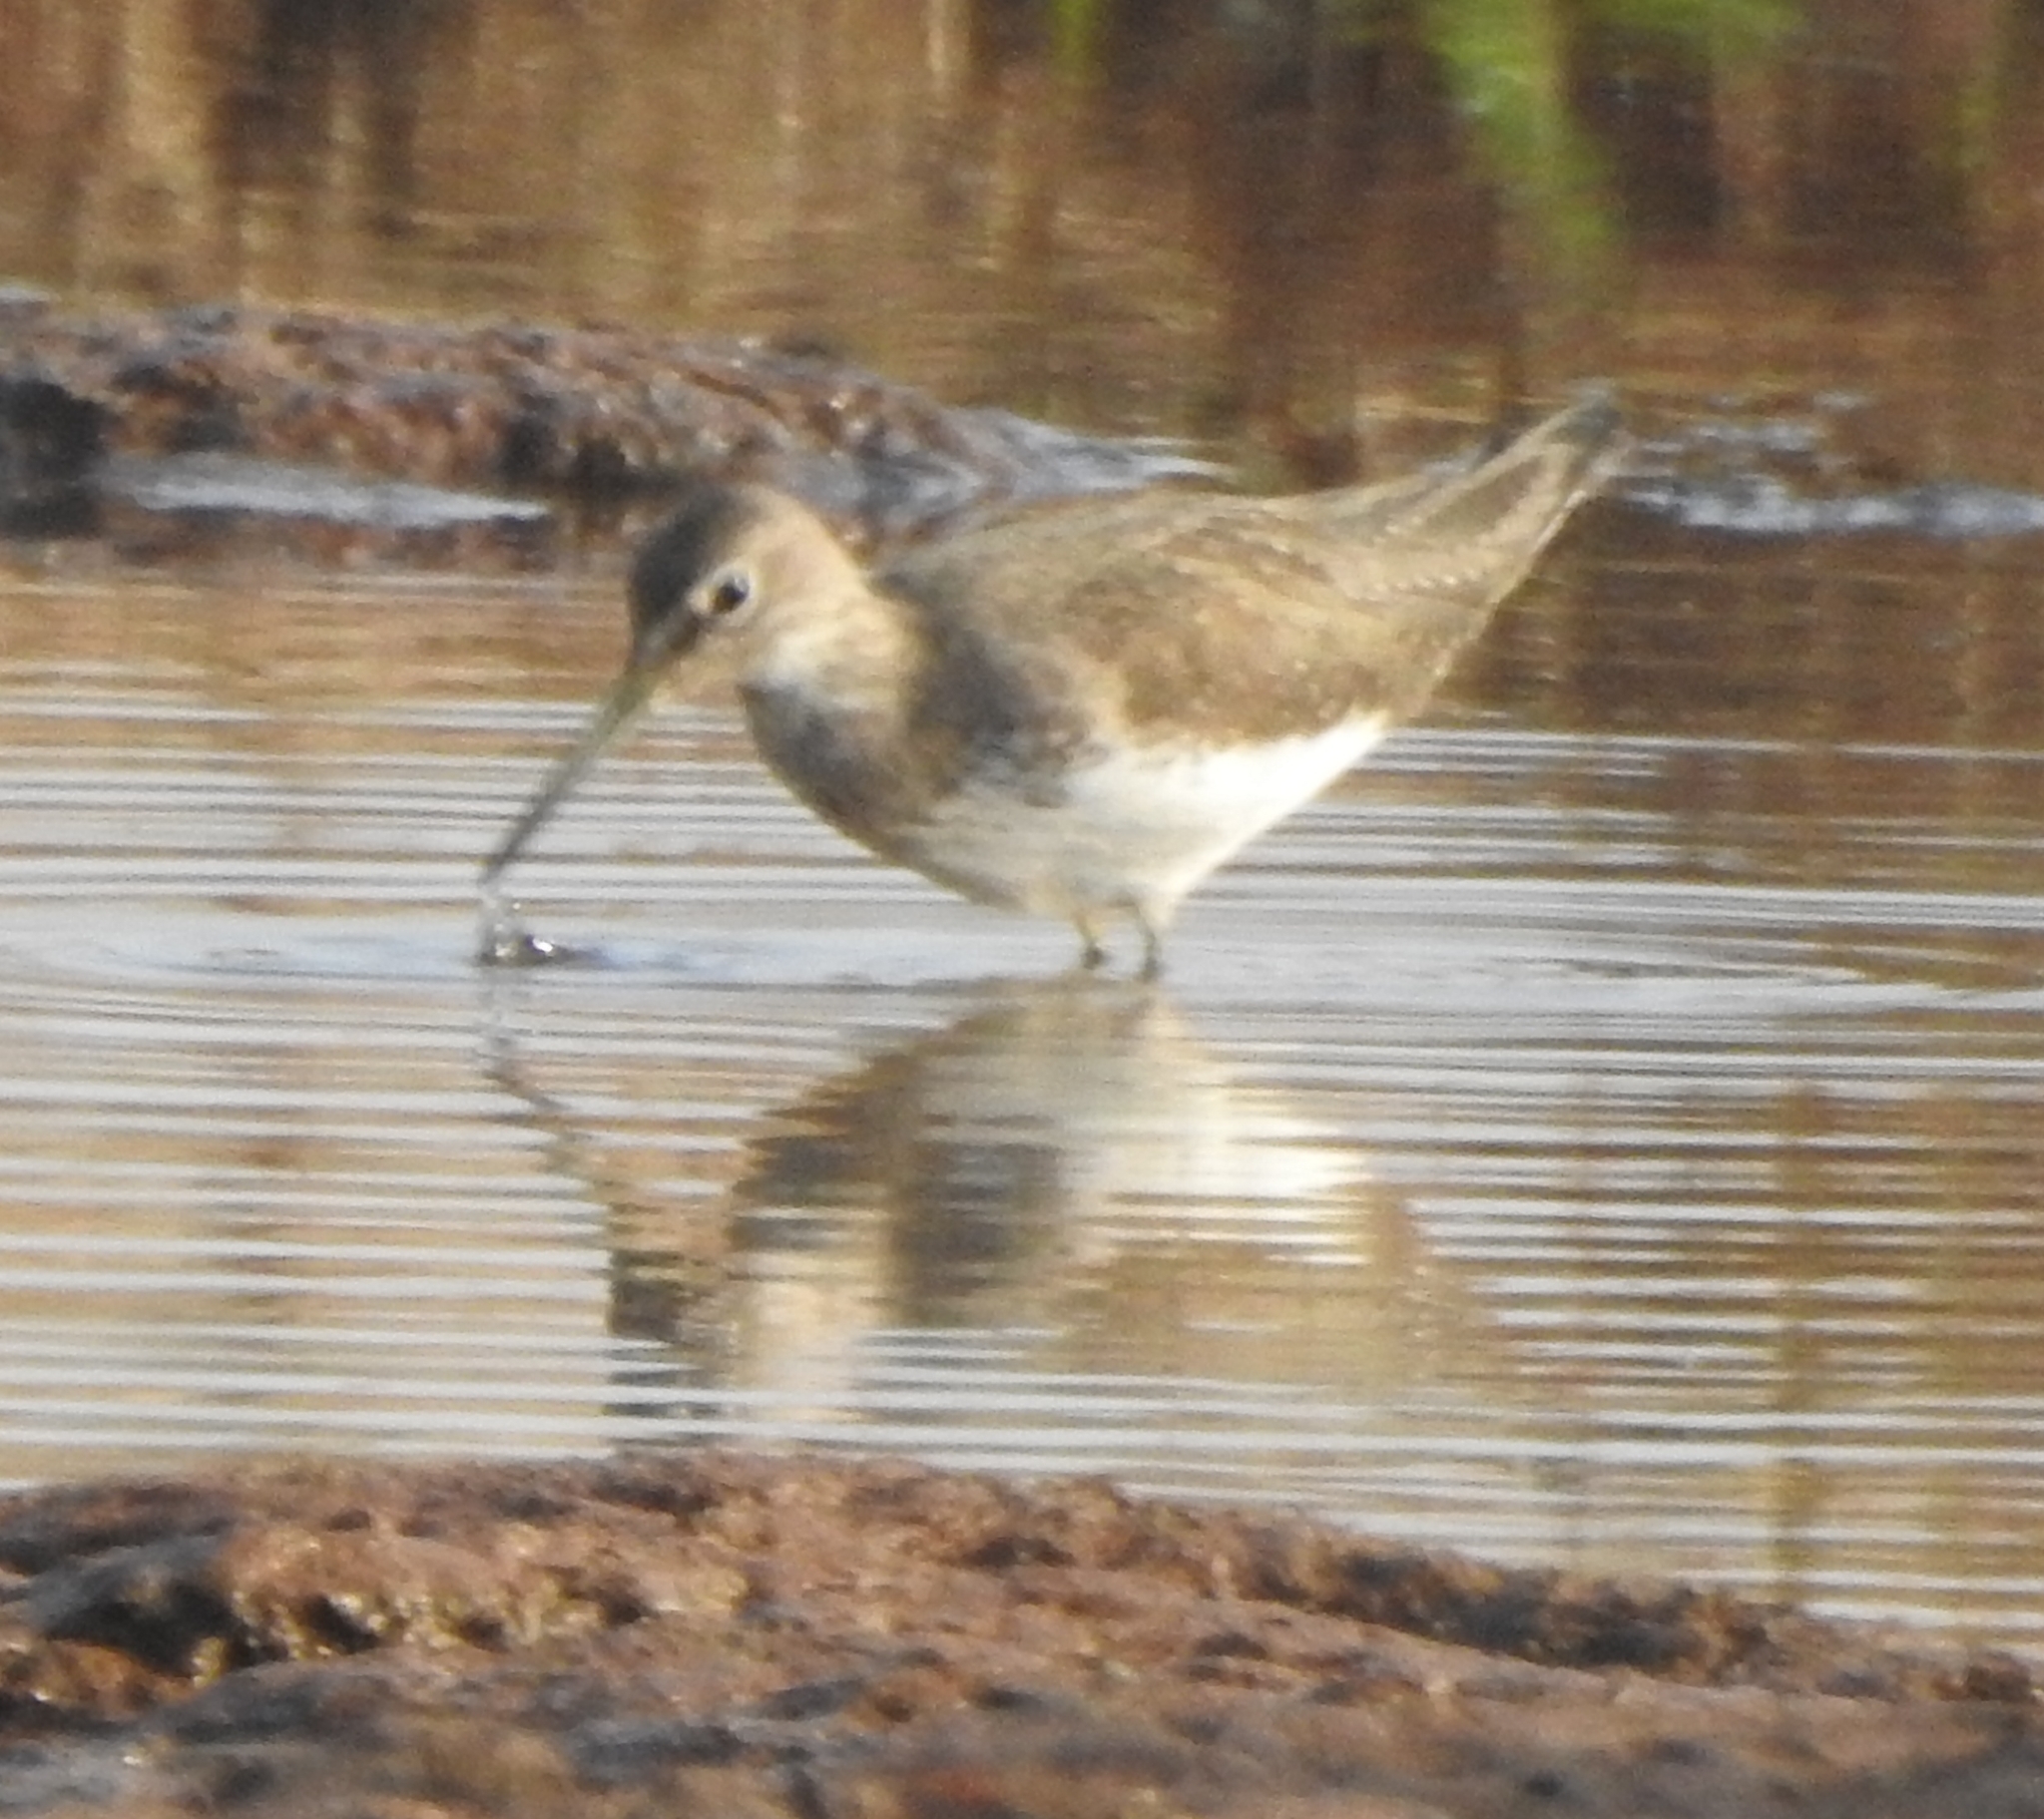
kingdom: Animalia
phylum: Chordata
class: Aves
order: Charadriiformes
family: Scolopacidae
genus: Tringa
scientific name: Tringa ochropus
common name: Green sandpiper
